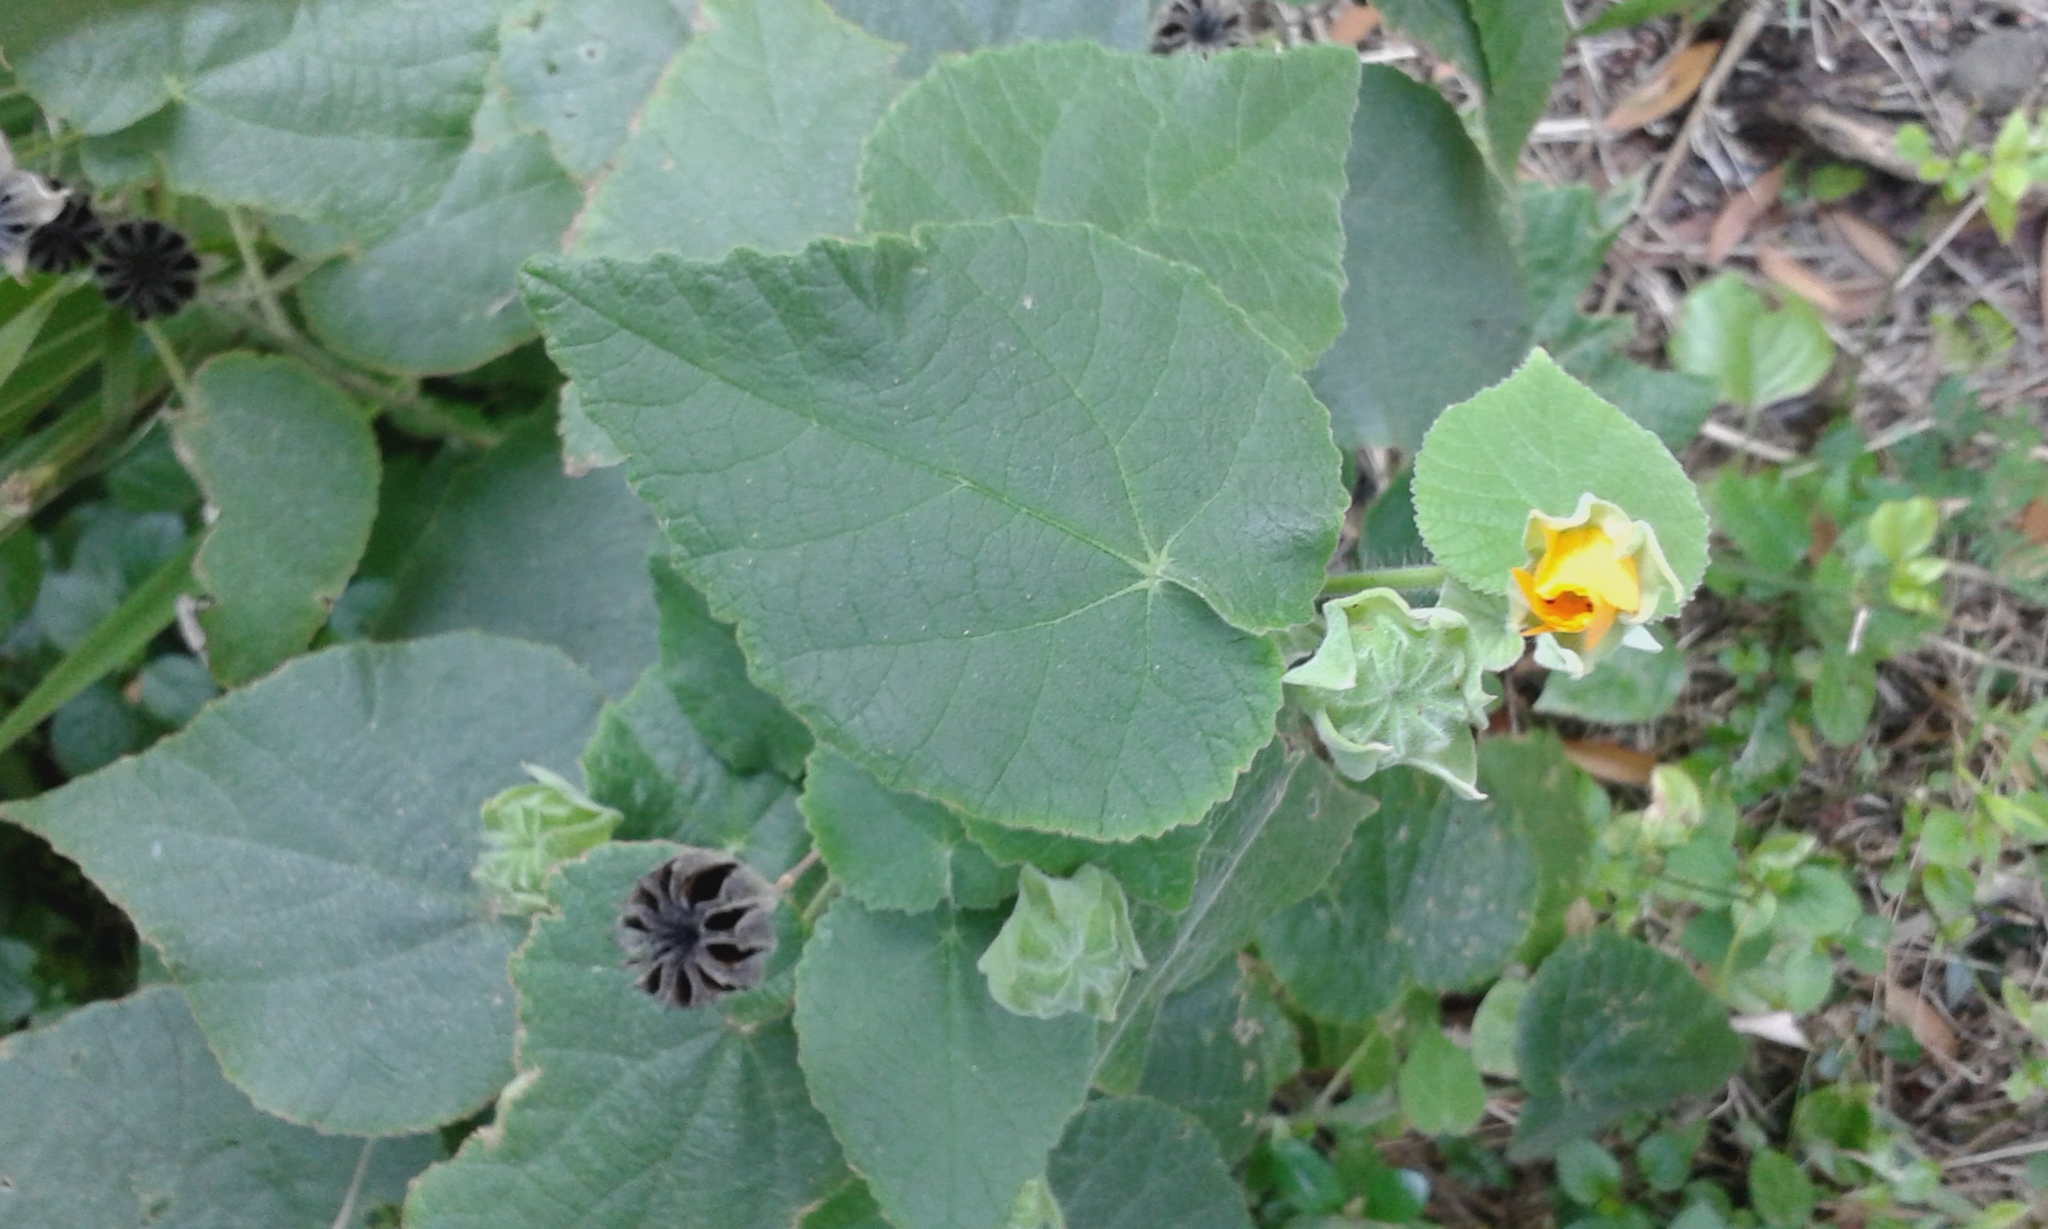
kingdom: Plantae
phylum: Tracheophyta
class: Magnoliopsida
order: Malvales
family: Malvaceae
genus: Abutilon
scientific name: Abutilon grandifolium
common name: Hairy abutilon
